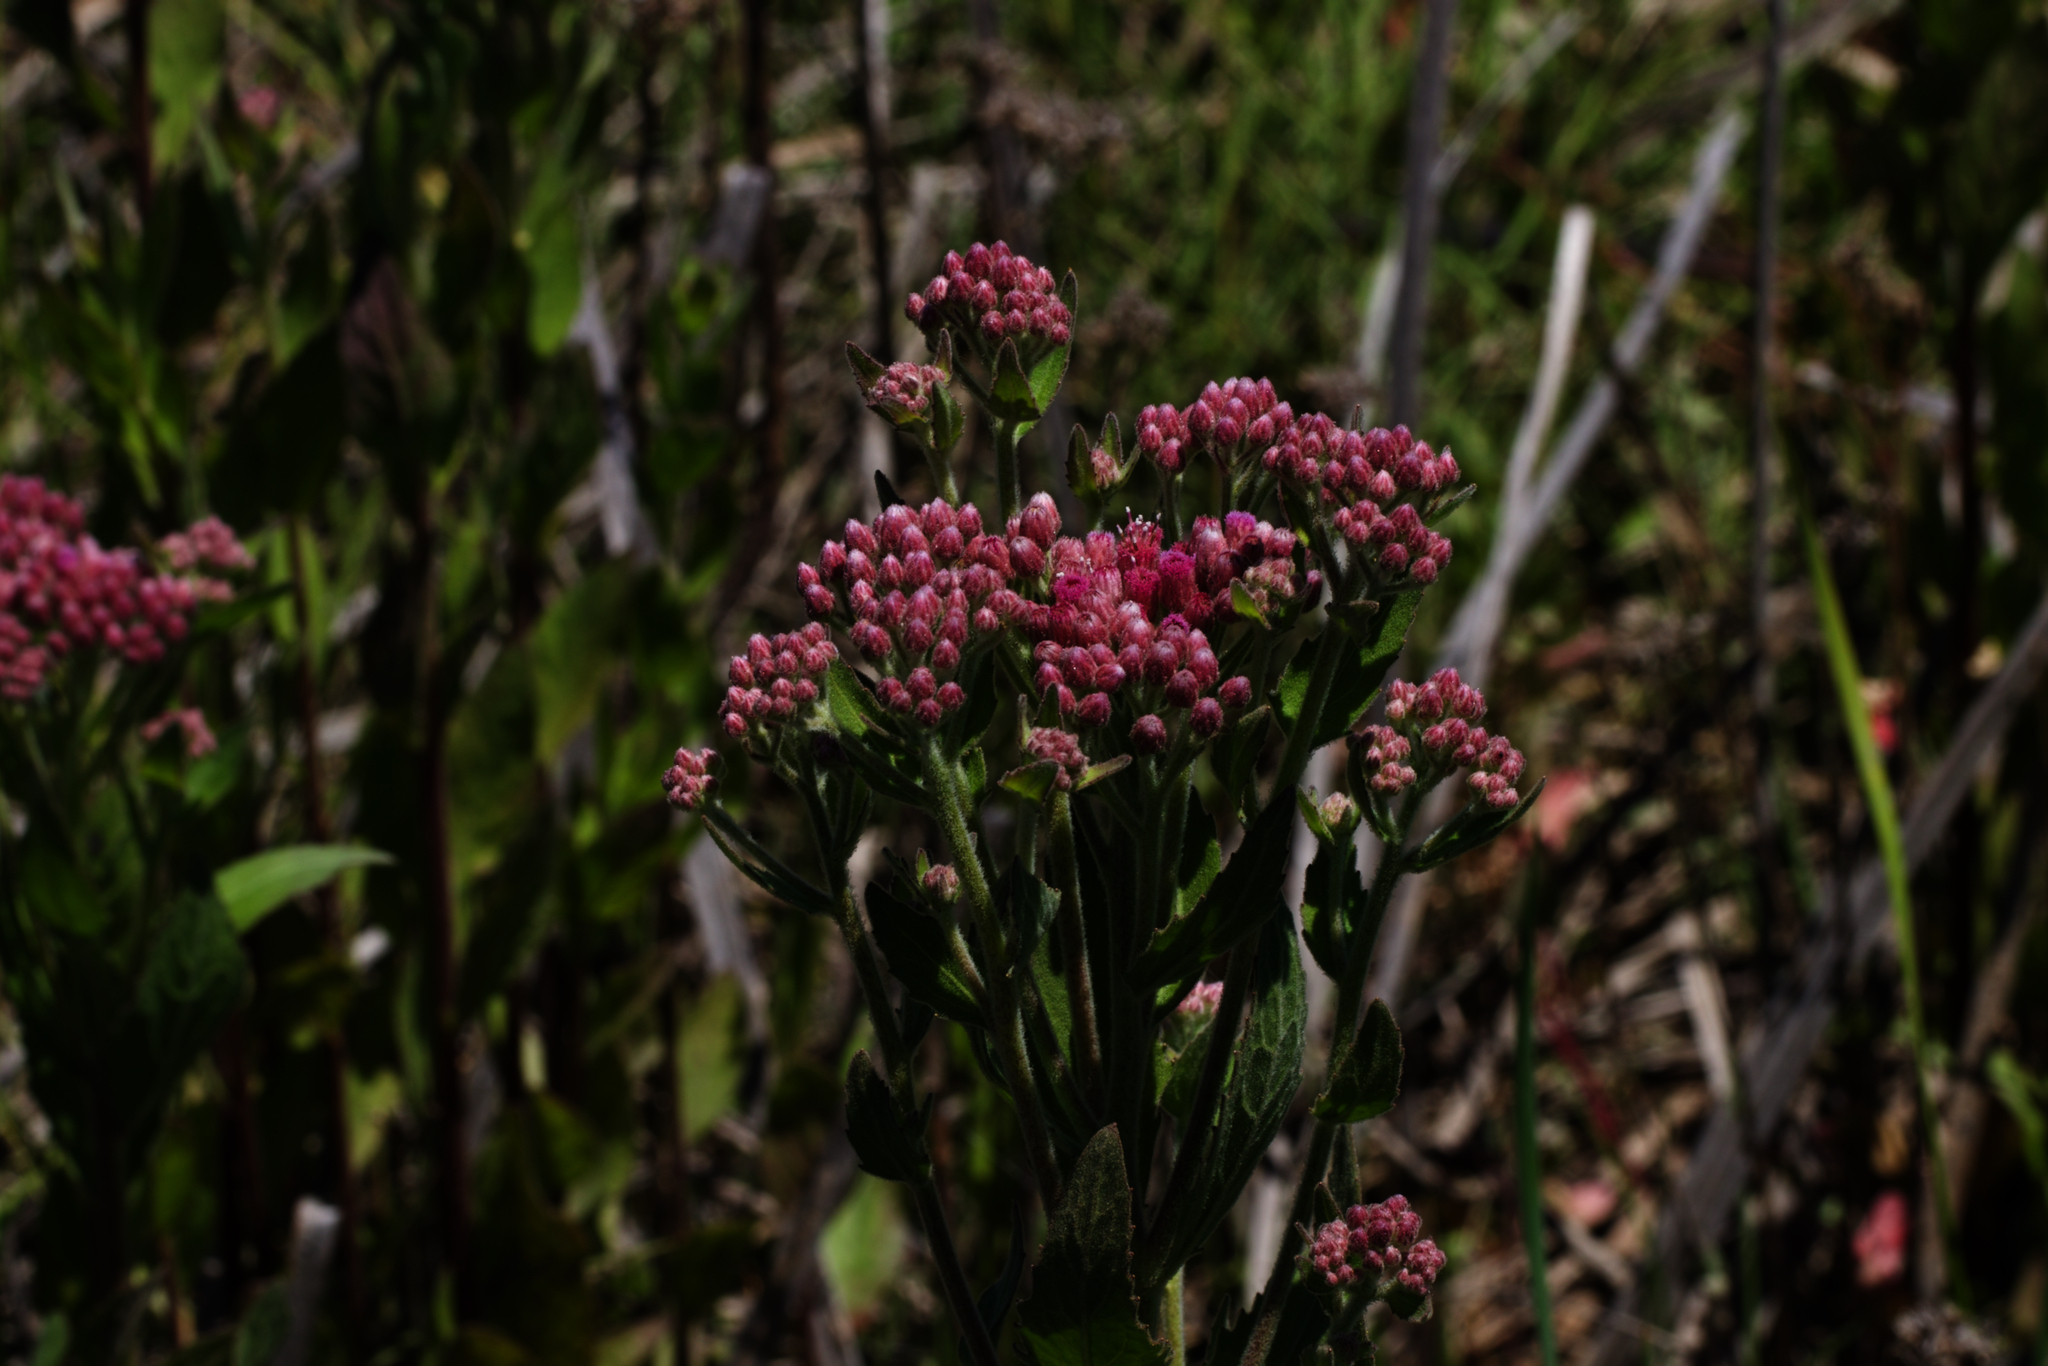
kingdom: Plantae
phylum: Tracheophyta
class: Magnoliopsida
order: Asterales
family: Asteraceae
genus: Pluchea
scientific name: Pluchea odorata
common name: Saltmarsh fleabane
